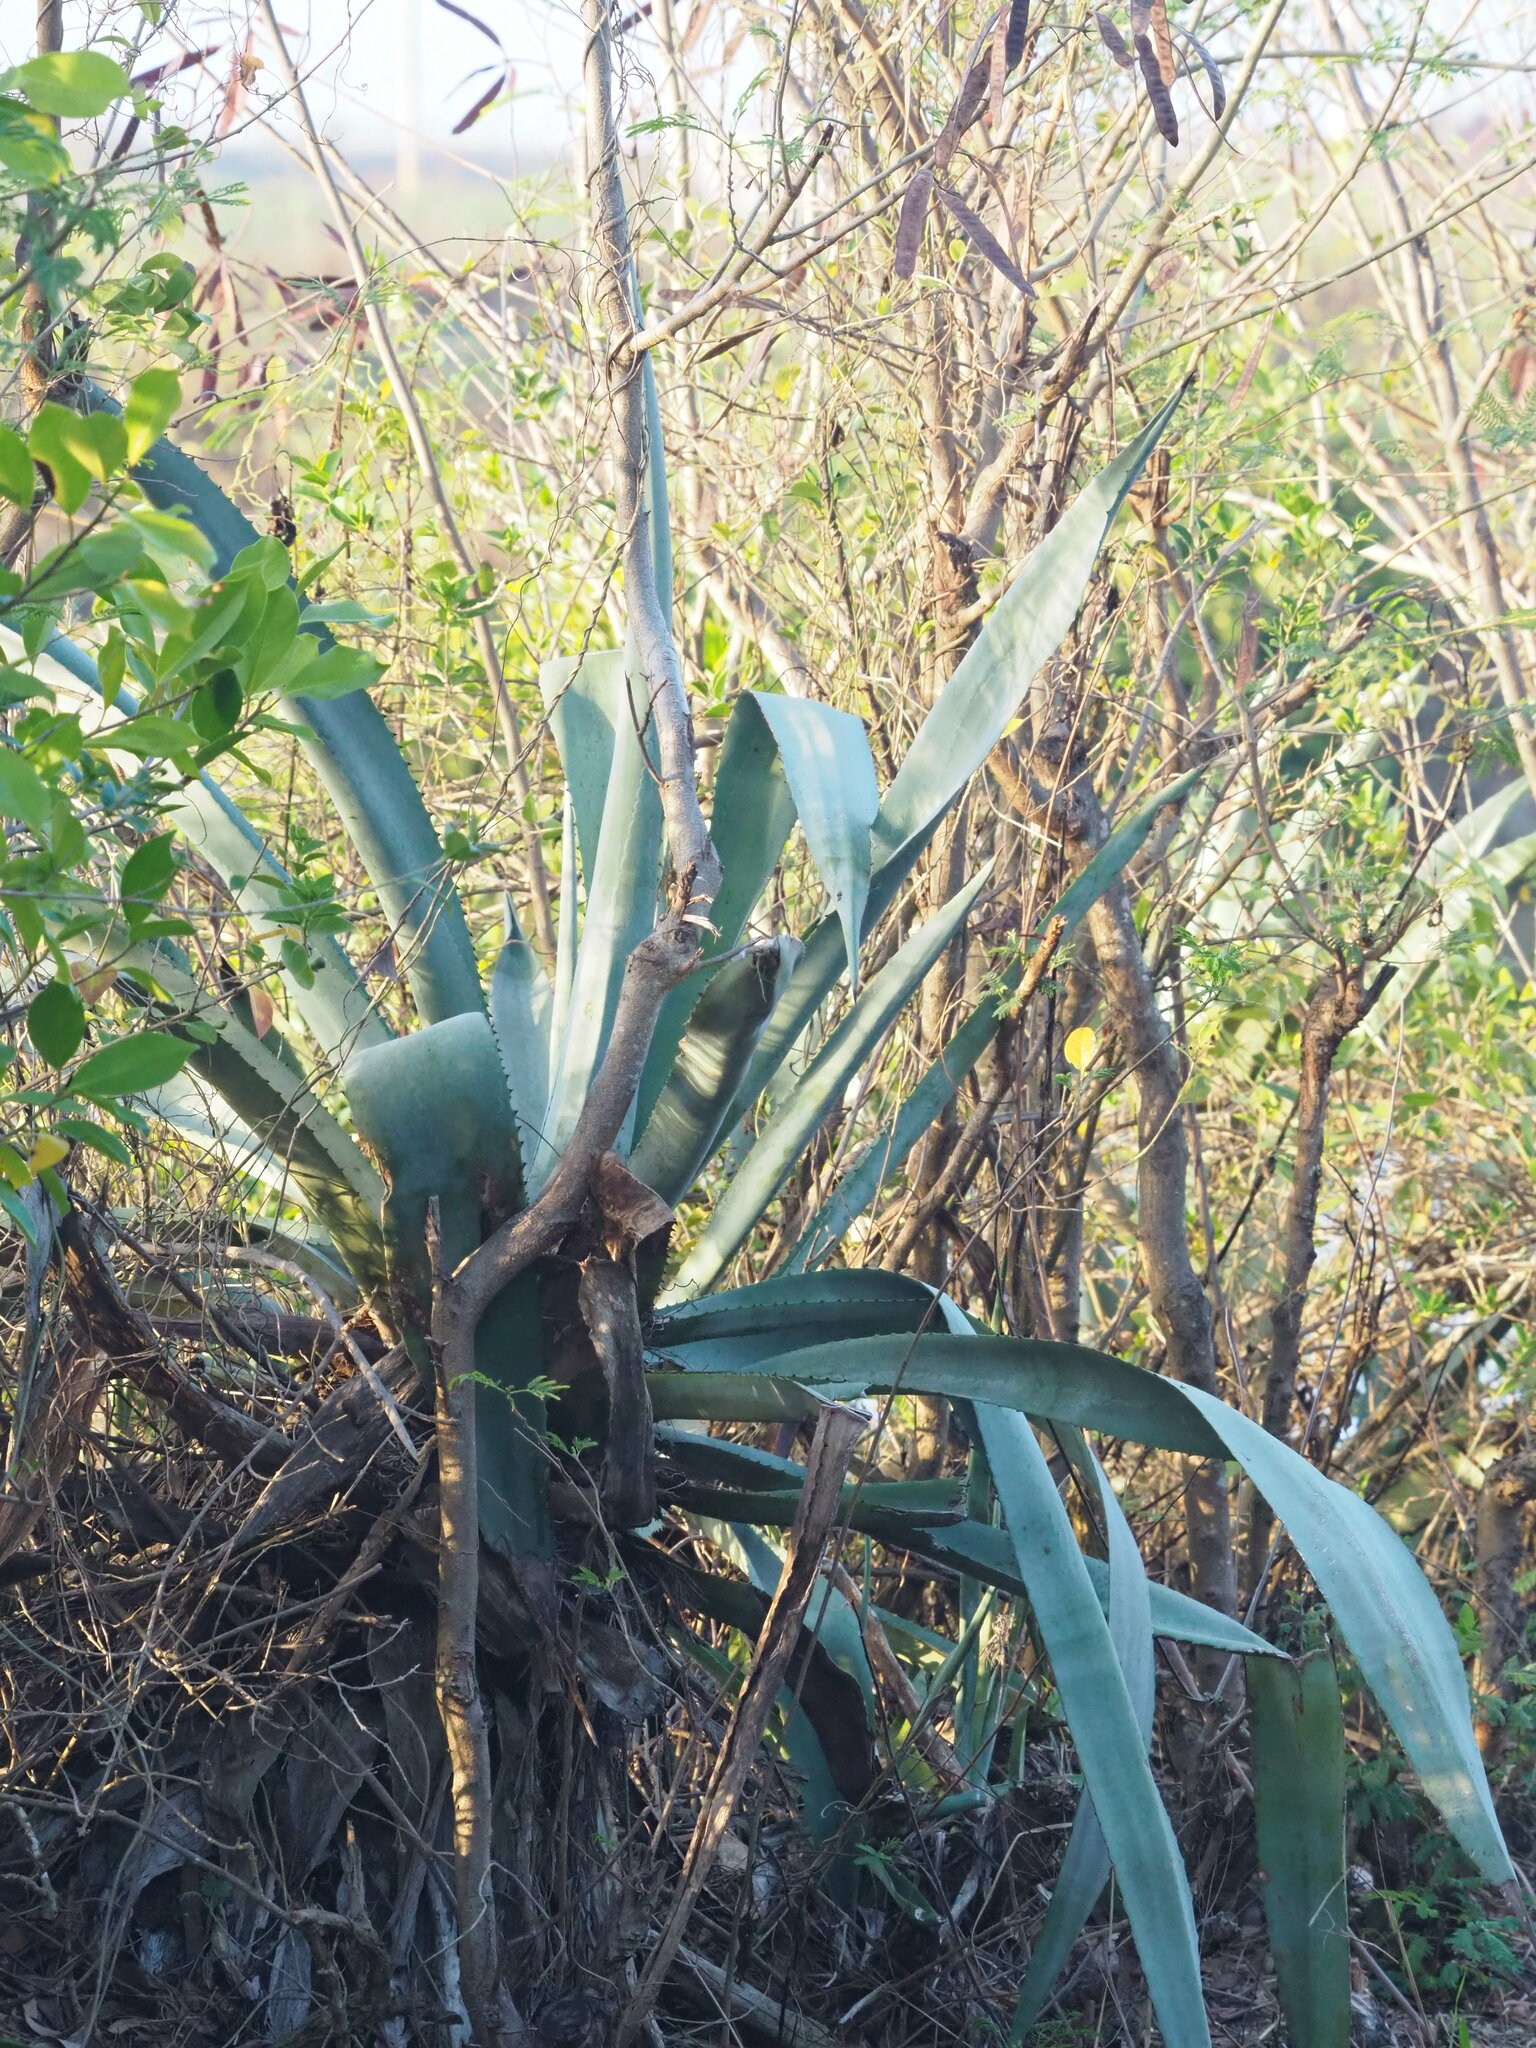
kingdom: Plantae
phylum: Tracheophyta
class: Liliopsida
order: Asparagales
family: Asparagaceae
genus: Agave
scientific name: Agave americana
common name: Centuryplant
